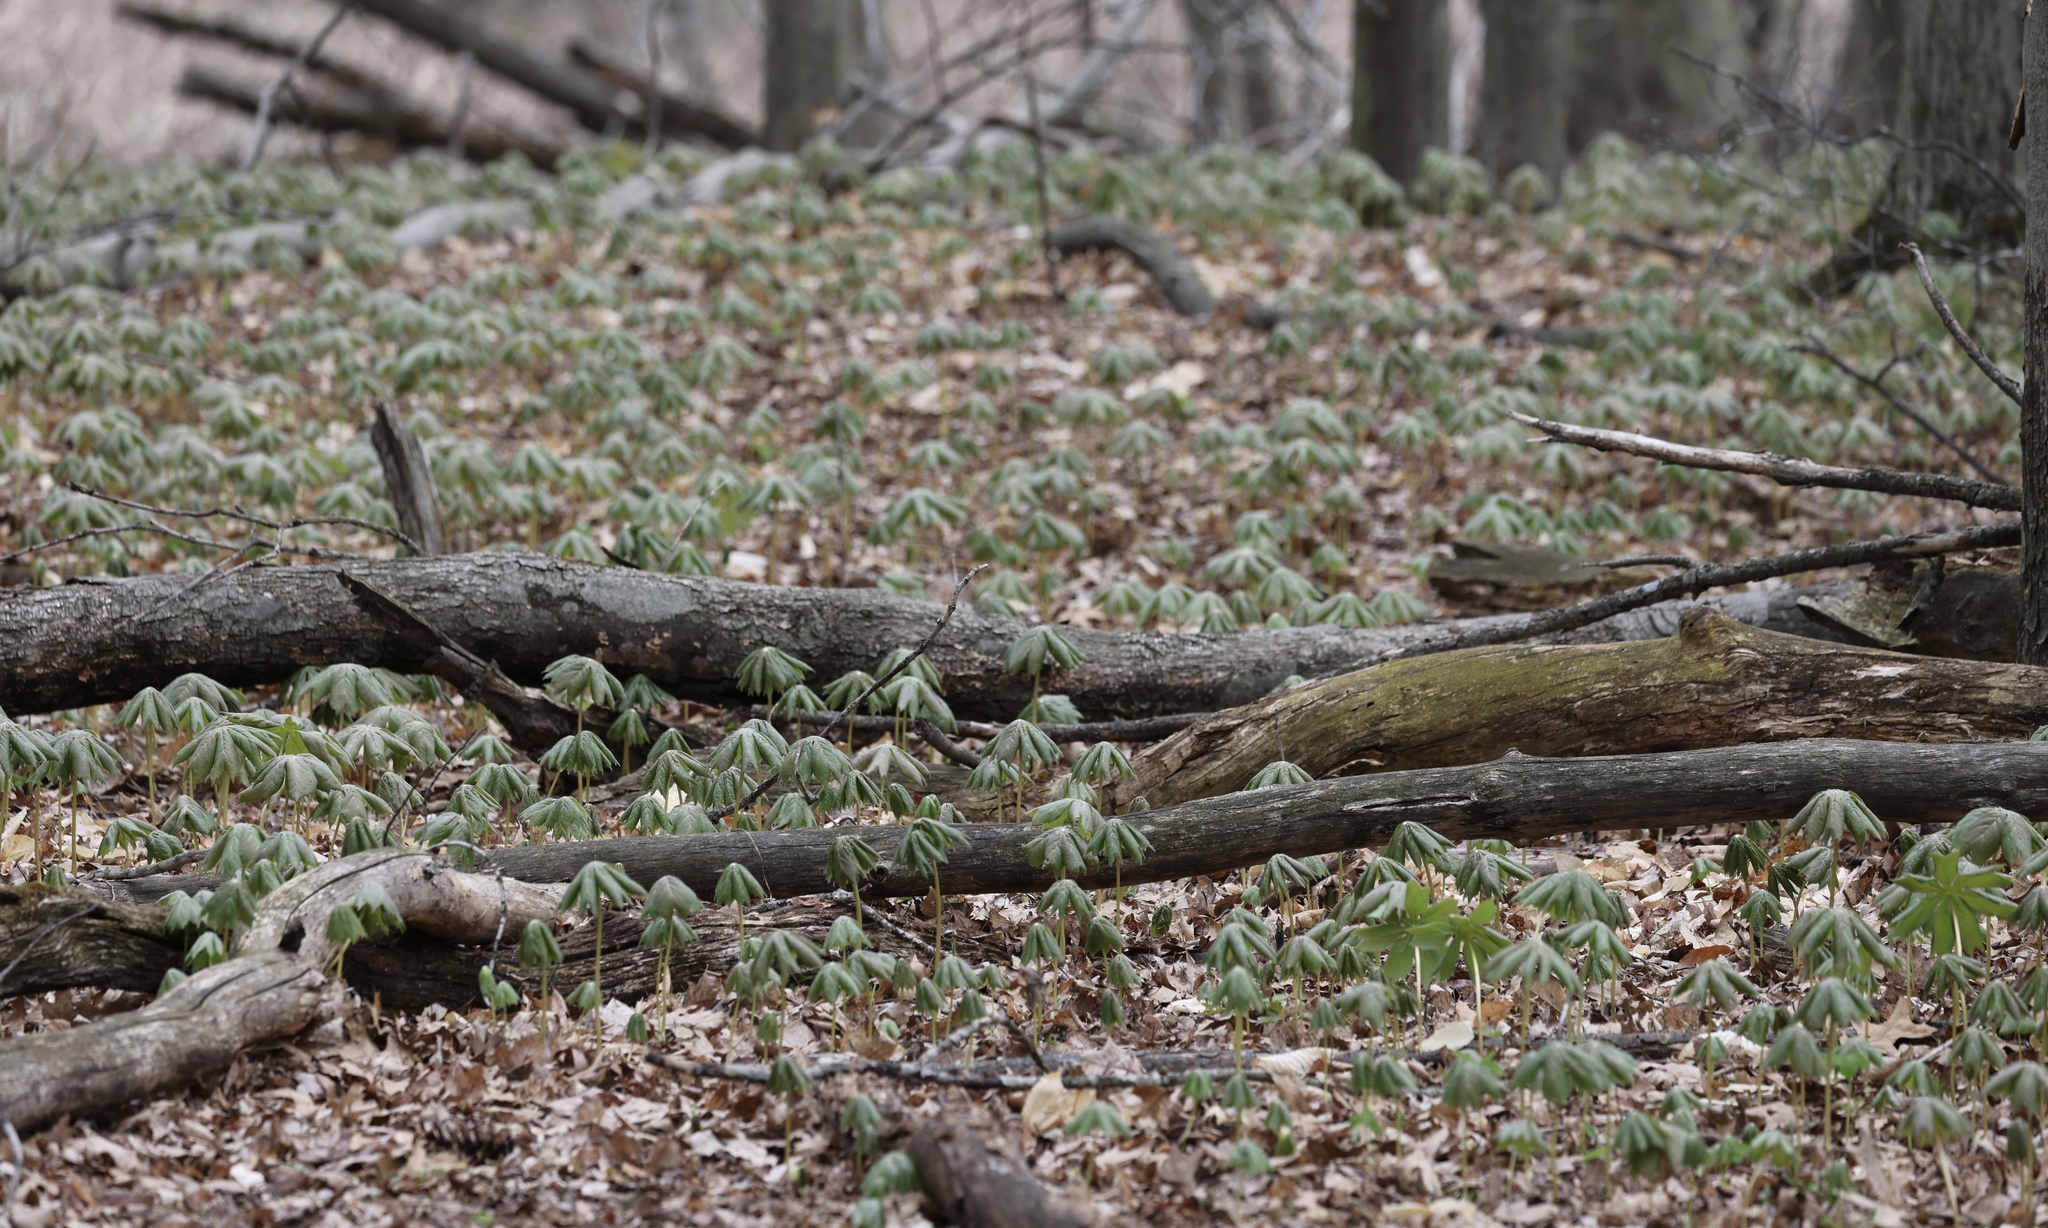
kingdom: Plantae
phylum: Tracheophyta
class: Magnoliopsida
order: Ranunculales
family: Berberidaceae
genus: Podophyllum
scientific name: Podophyllum peltatum
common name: Wild mandrake
